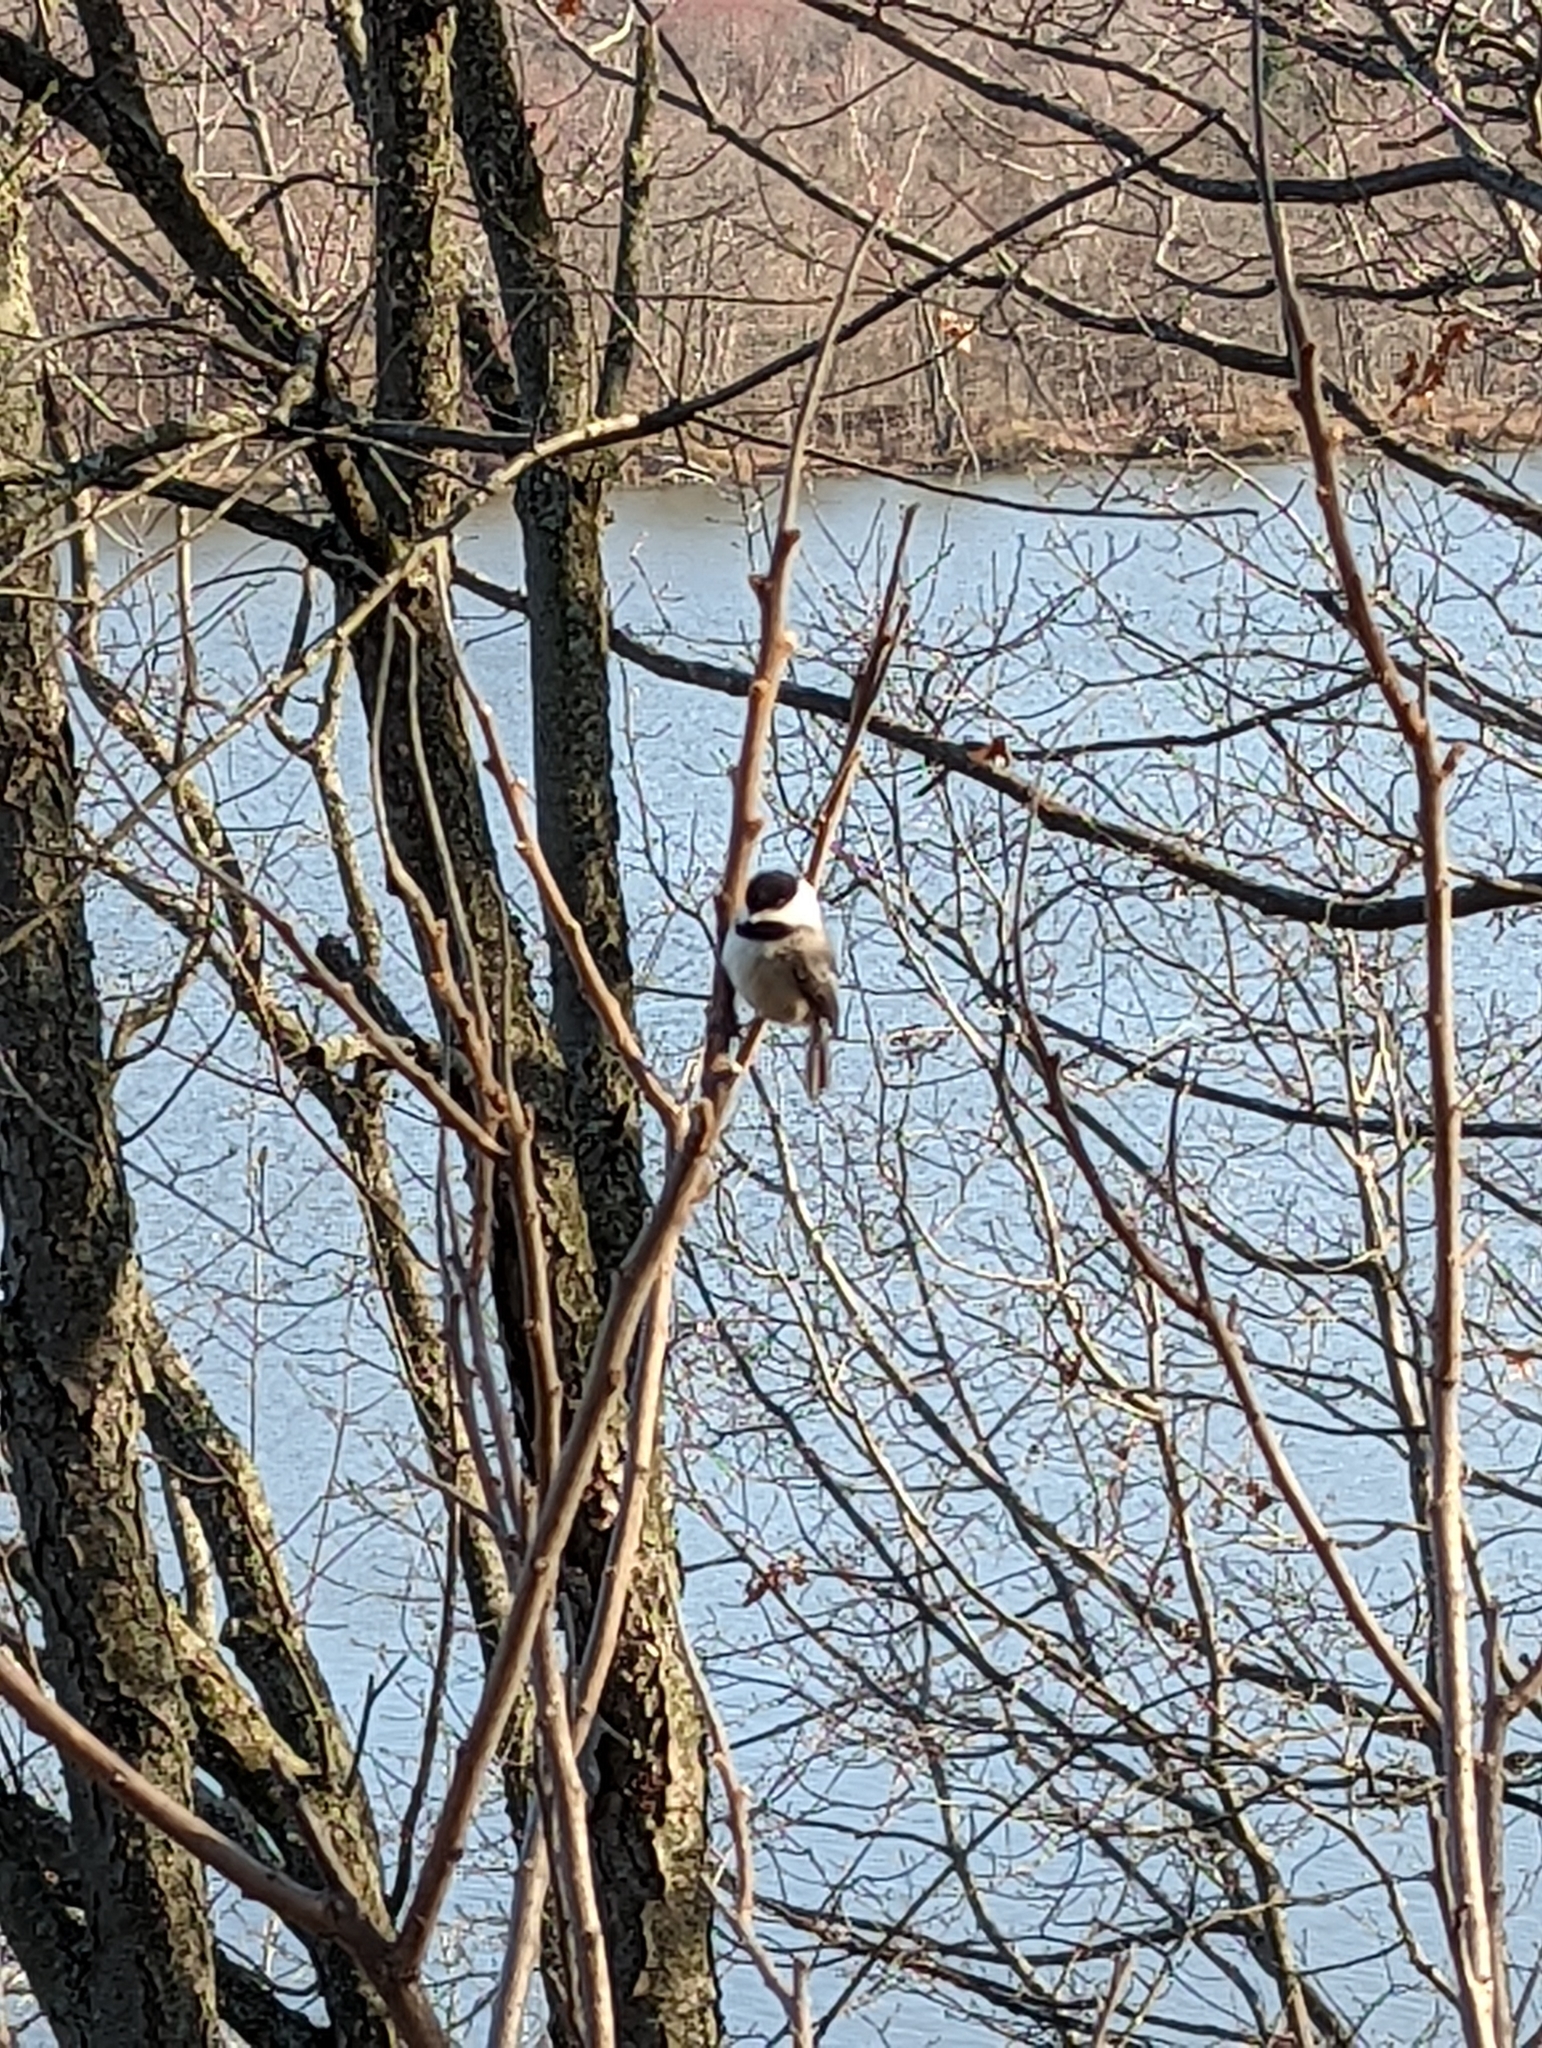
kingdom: Animalia
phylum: Chordata
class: Aves
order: Passeriformes
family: Paridae
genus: Poecile
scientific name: Poecile atricapillus
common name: Black-capped chickadee
